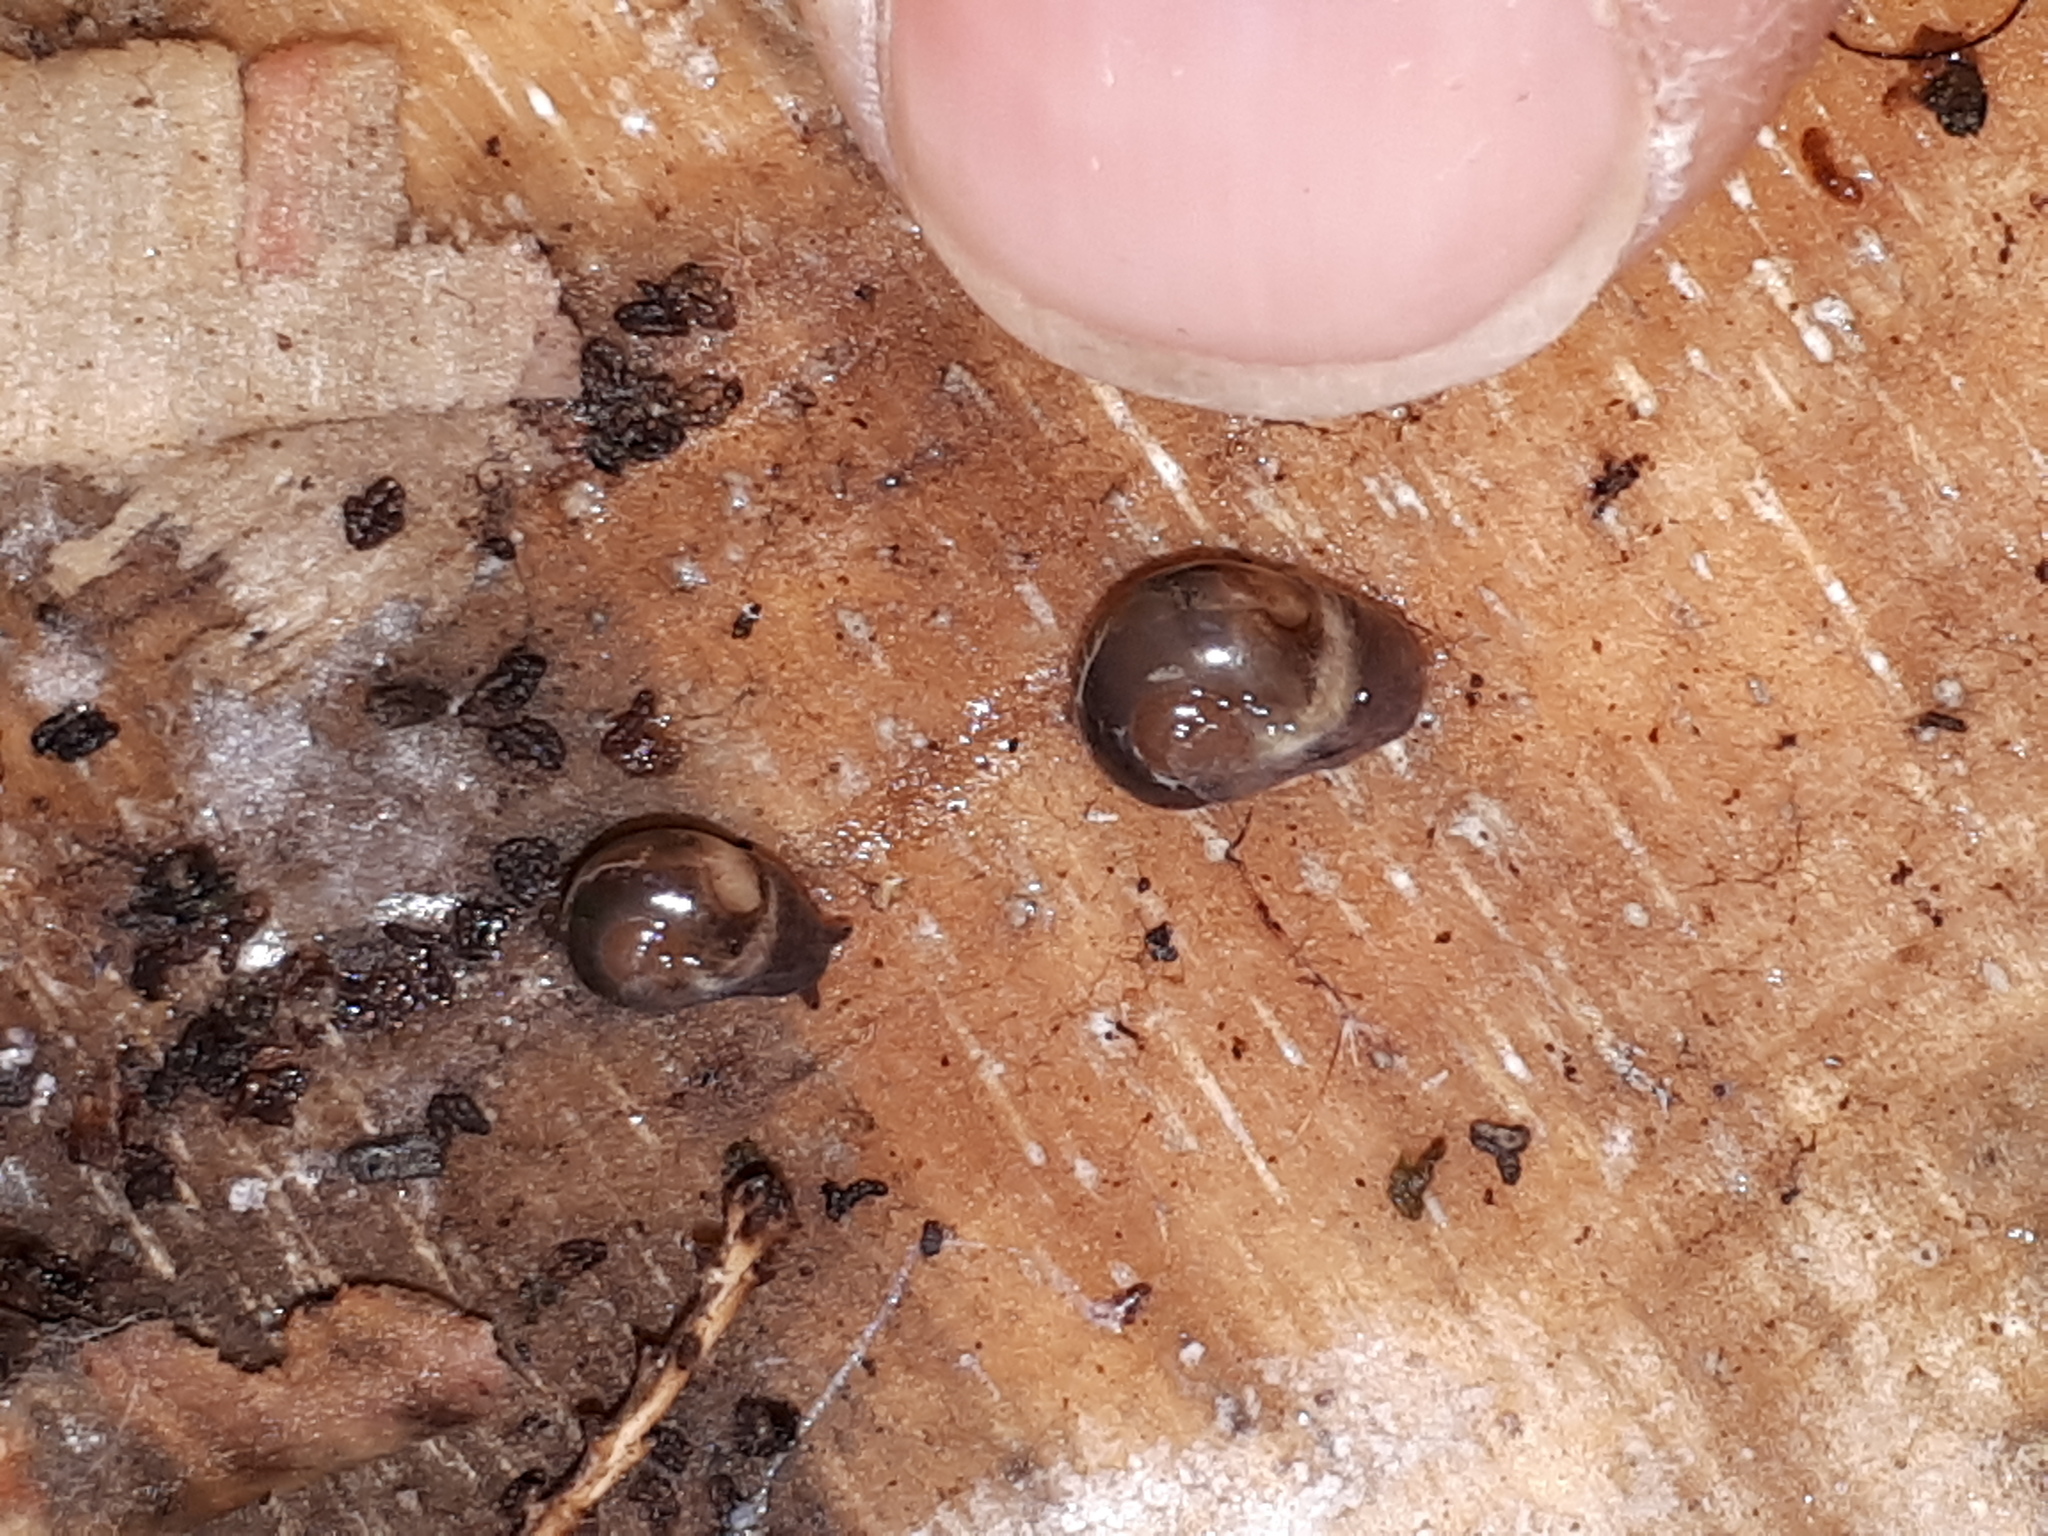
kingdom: Animalia
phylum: Mollusca
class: Gastropoda
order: Stylommatophora
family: Vitrinidae
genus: Vitrina
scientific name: Vitrina pellucida
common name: Pellucid glass snail
